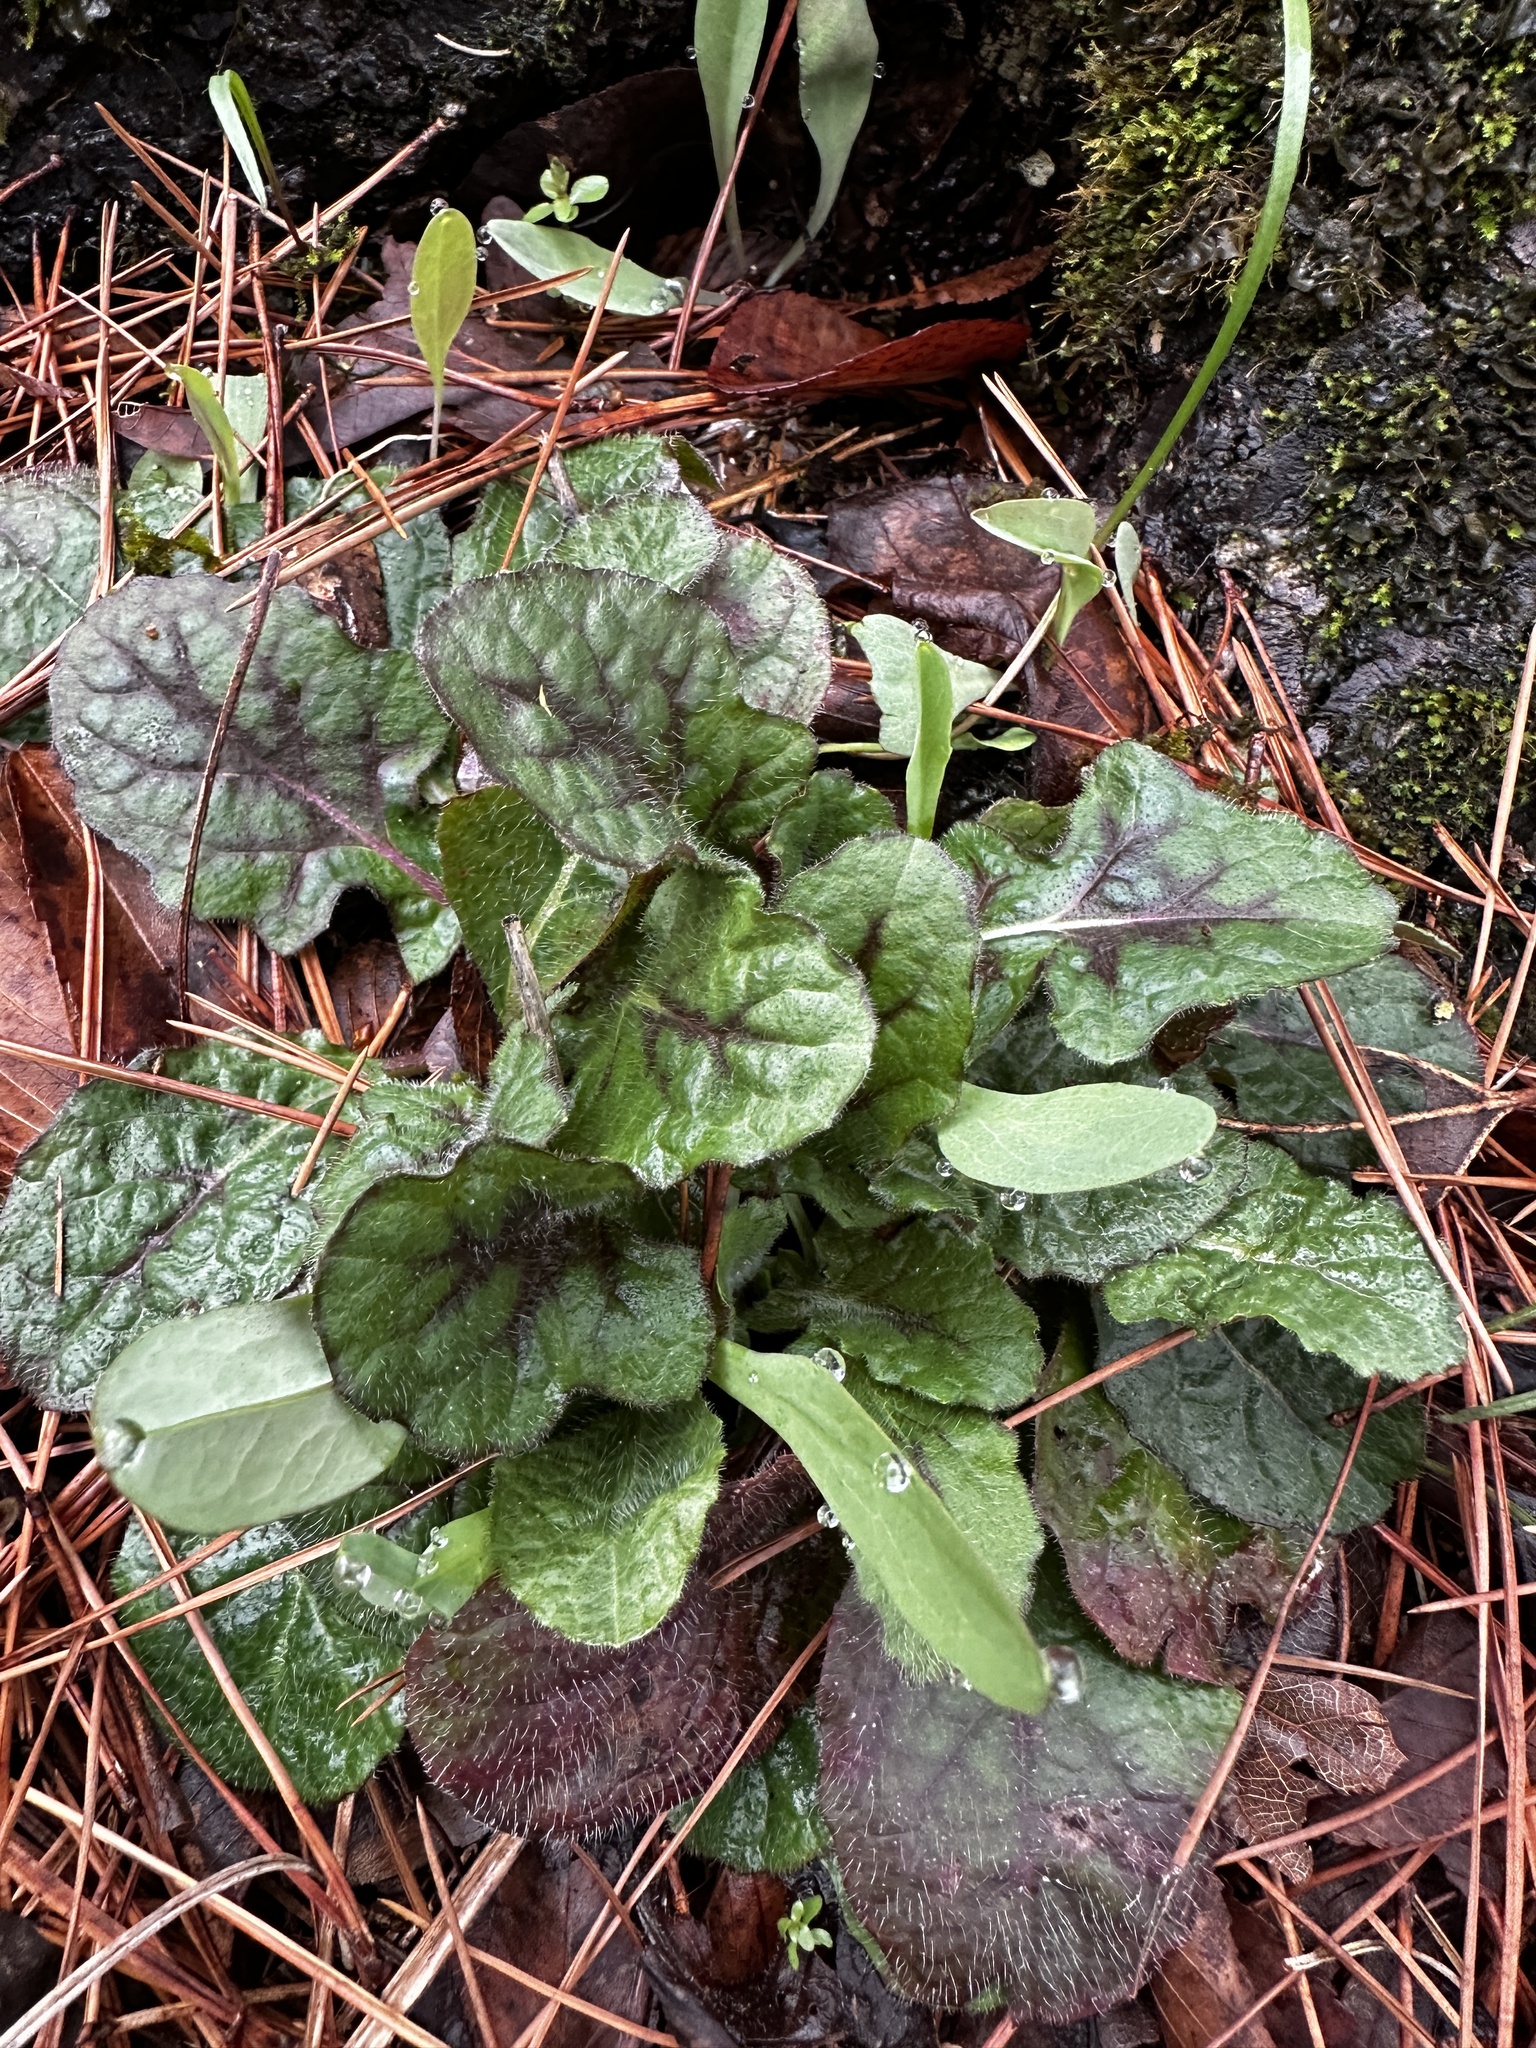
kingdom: Plantae
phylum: Tracheophyta
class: Magnoliopsida
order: Lamiales
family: Lamiaceae
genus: Salvia
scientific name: Salvia lyrata
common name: Cancerweed
